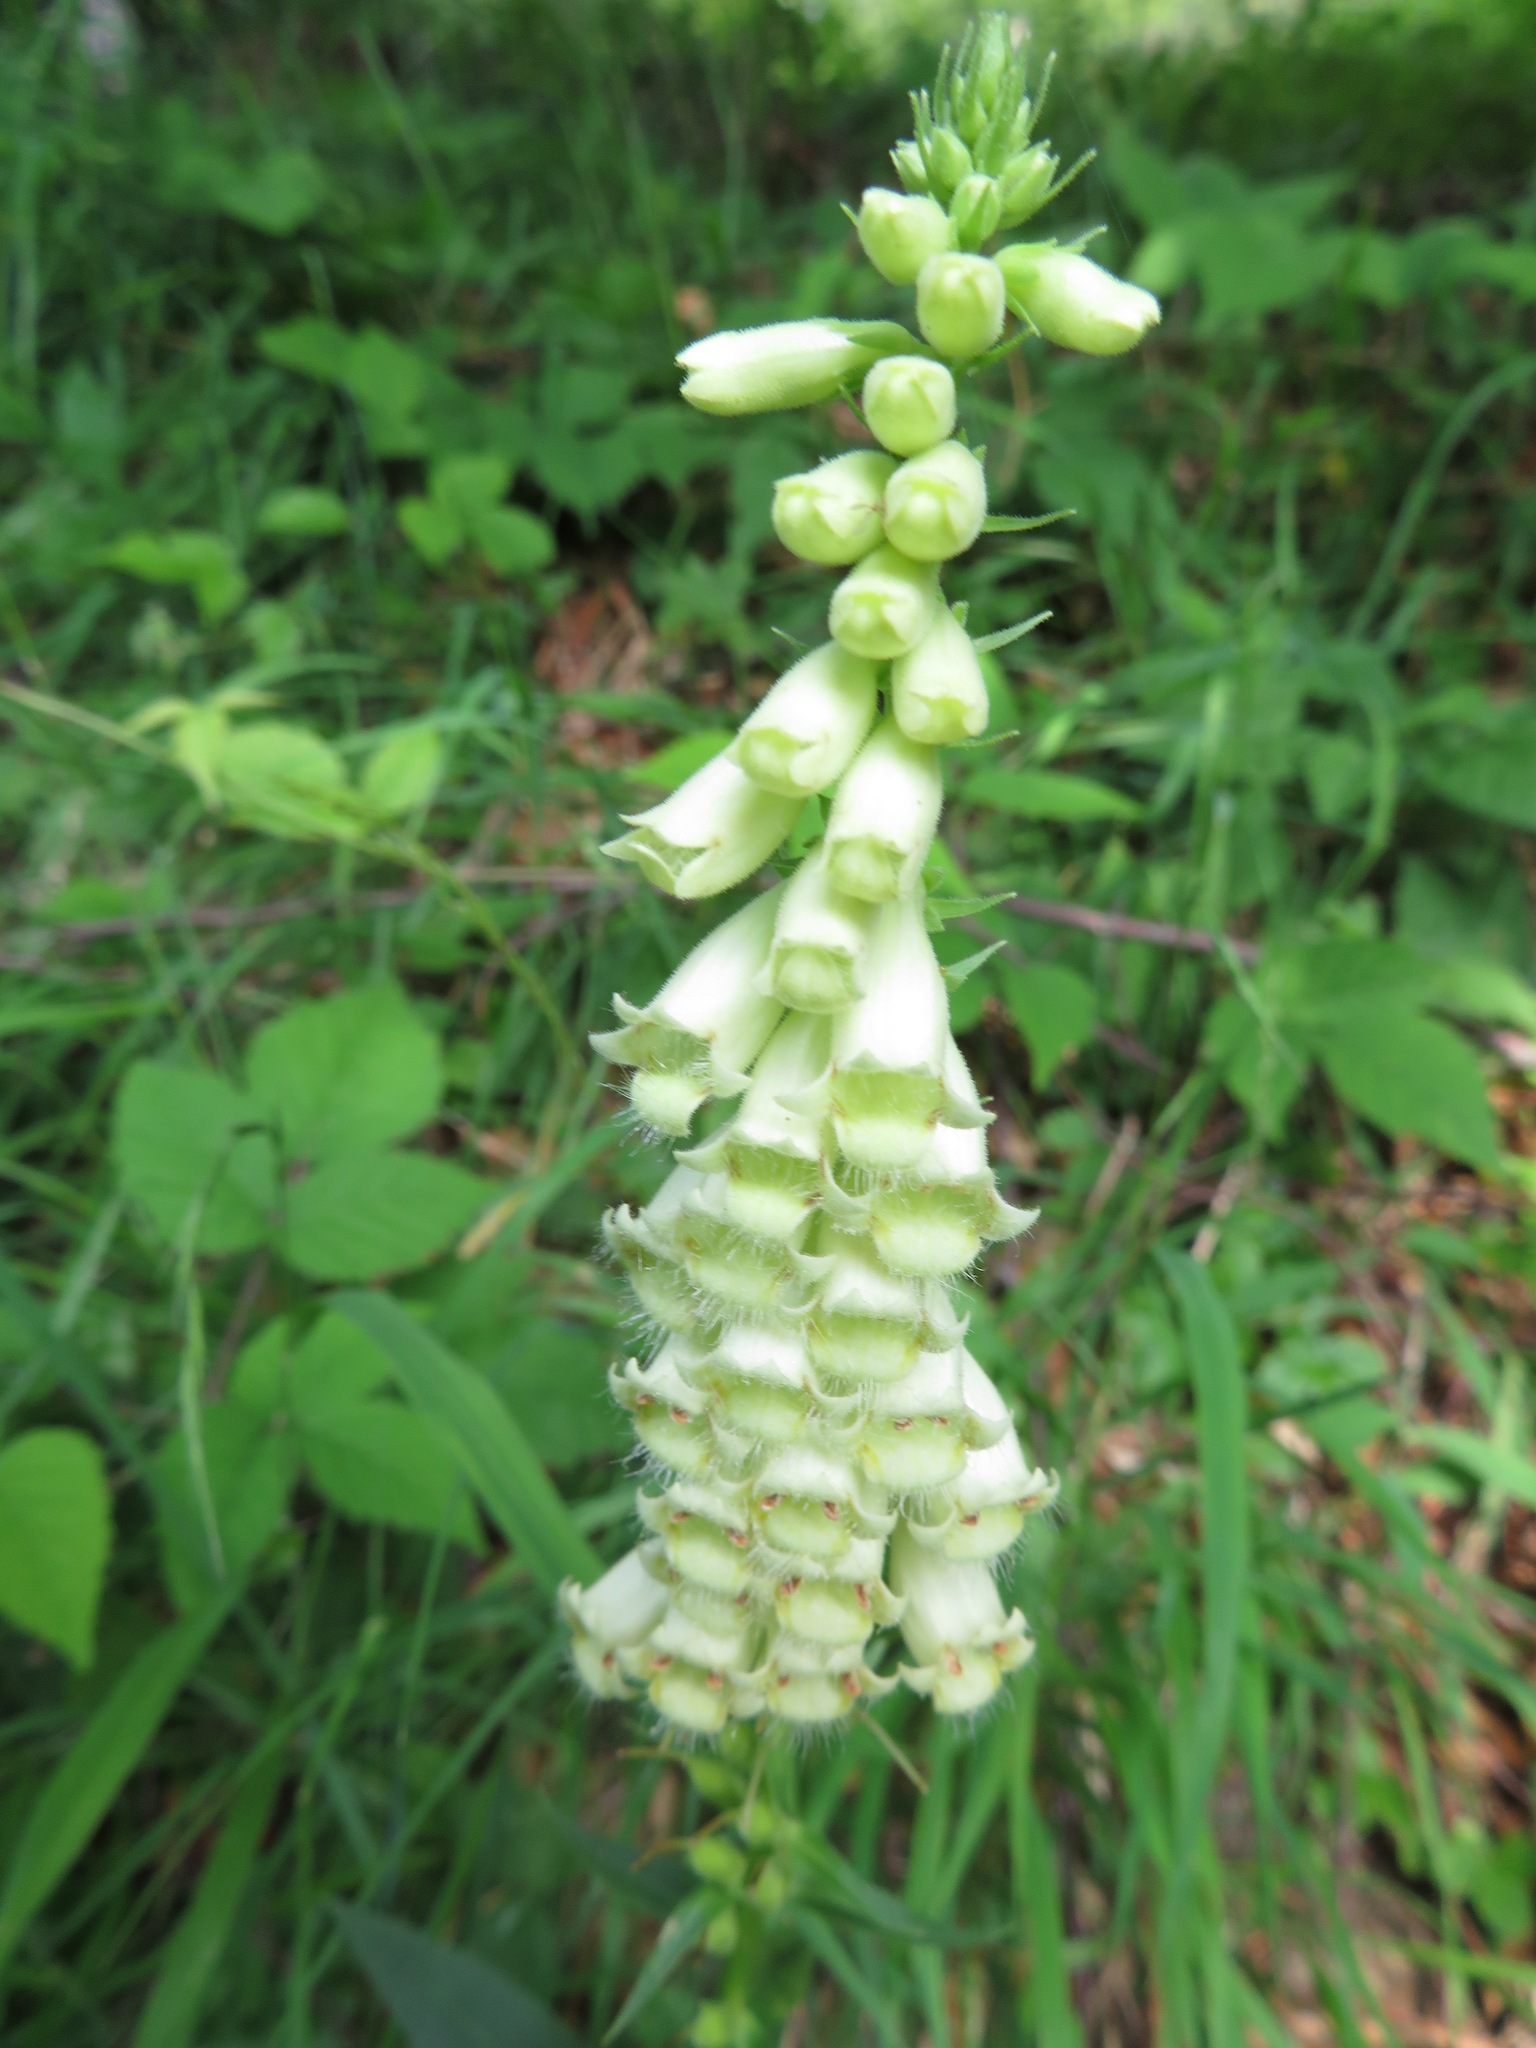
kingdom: Plantae
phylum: Tracheophyta
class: Magnoliopsida
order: Lamiales
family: Plantaginaceae
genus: Digitalis
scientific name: Digitalis lutea
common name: Straw foxglove
